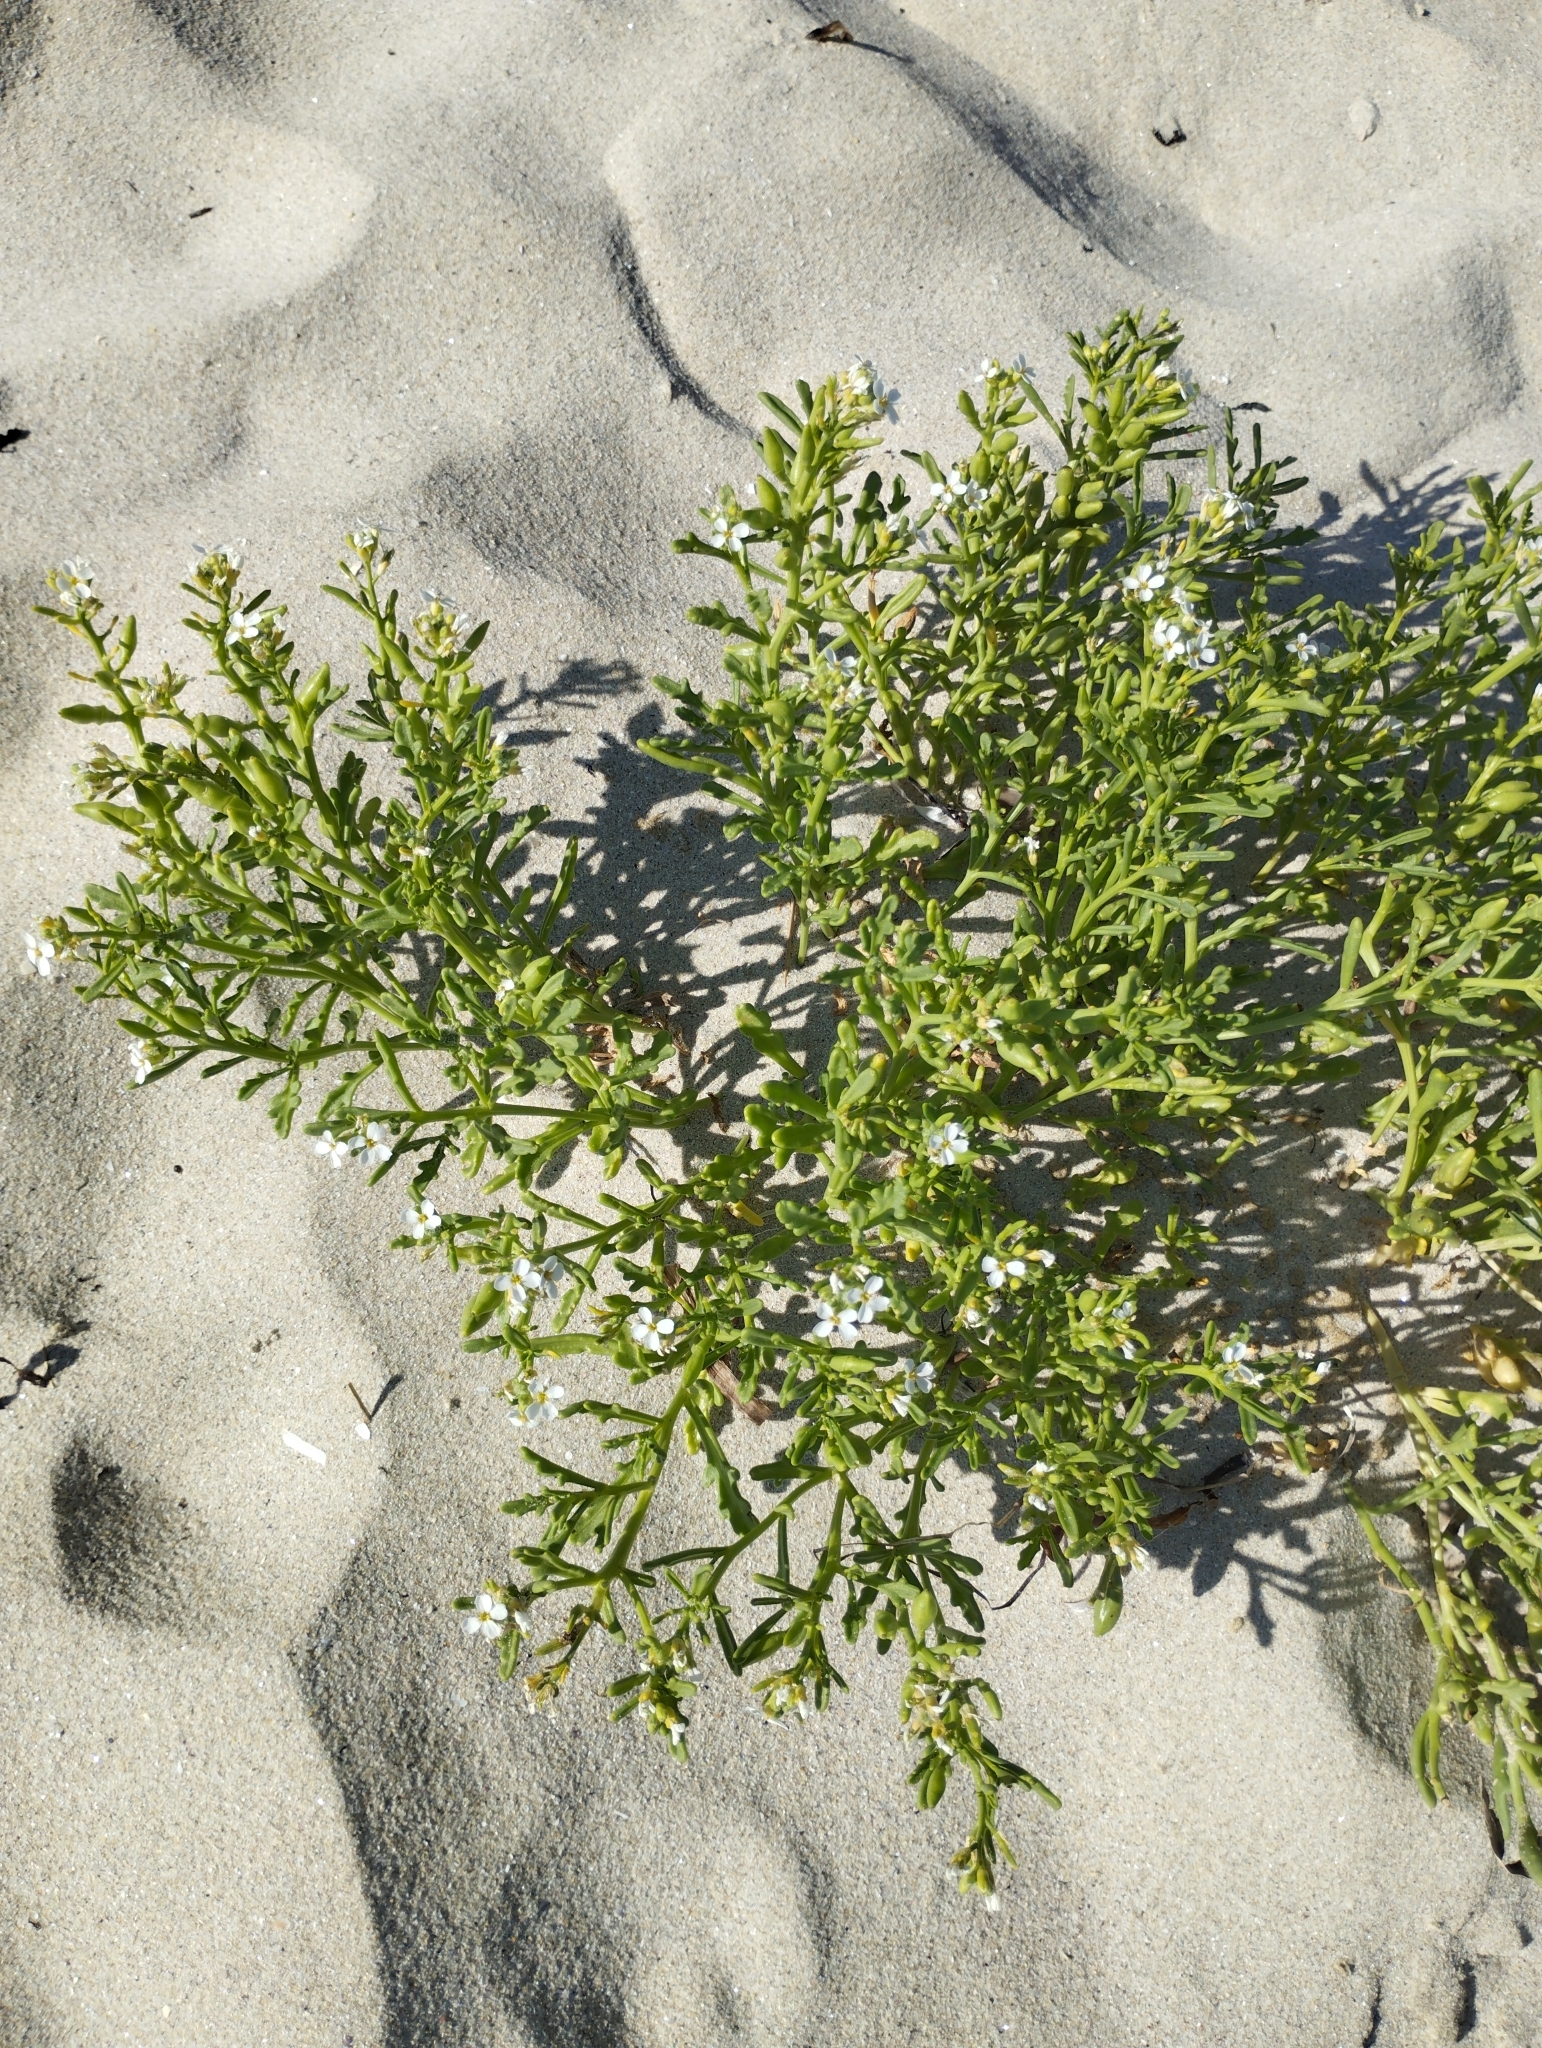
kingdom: Plantae
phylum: Tracheophyta
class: Magnoliopsida
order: Brassicales
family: Brassicaceae
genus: Cakile
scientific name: Cakile maritima
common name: Sea rocket
